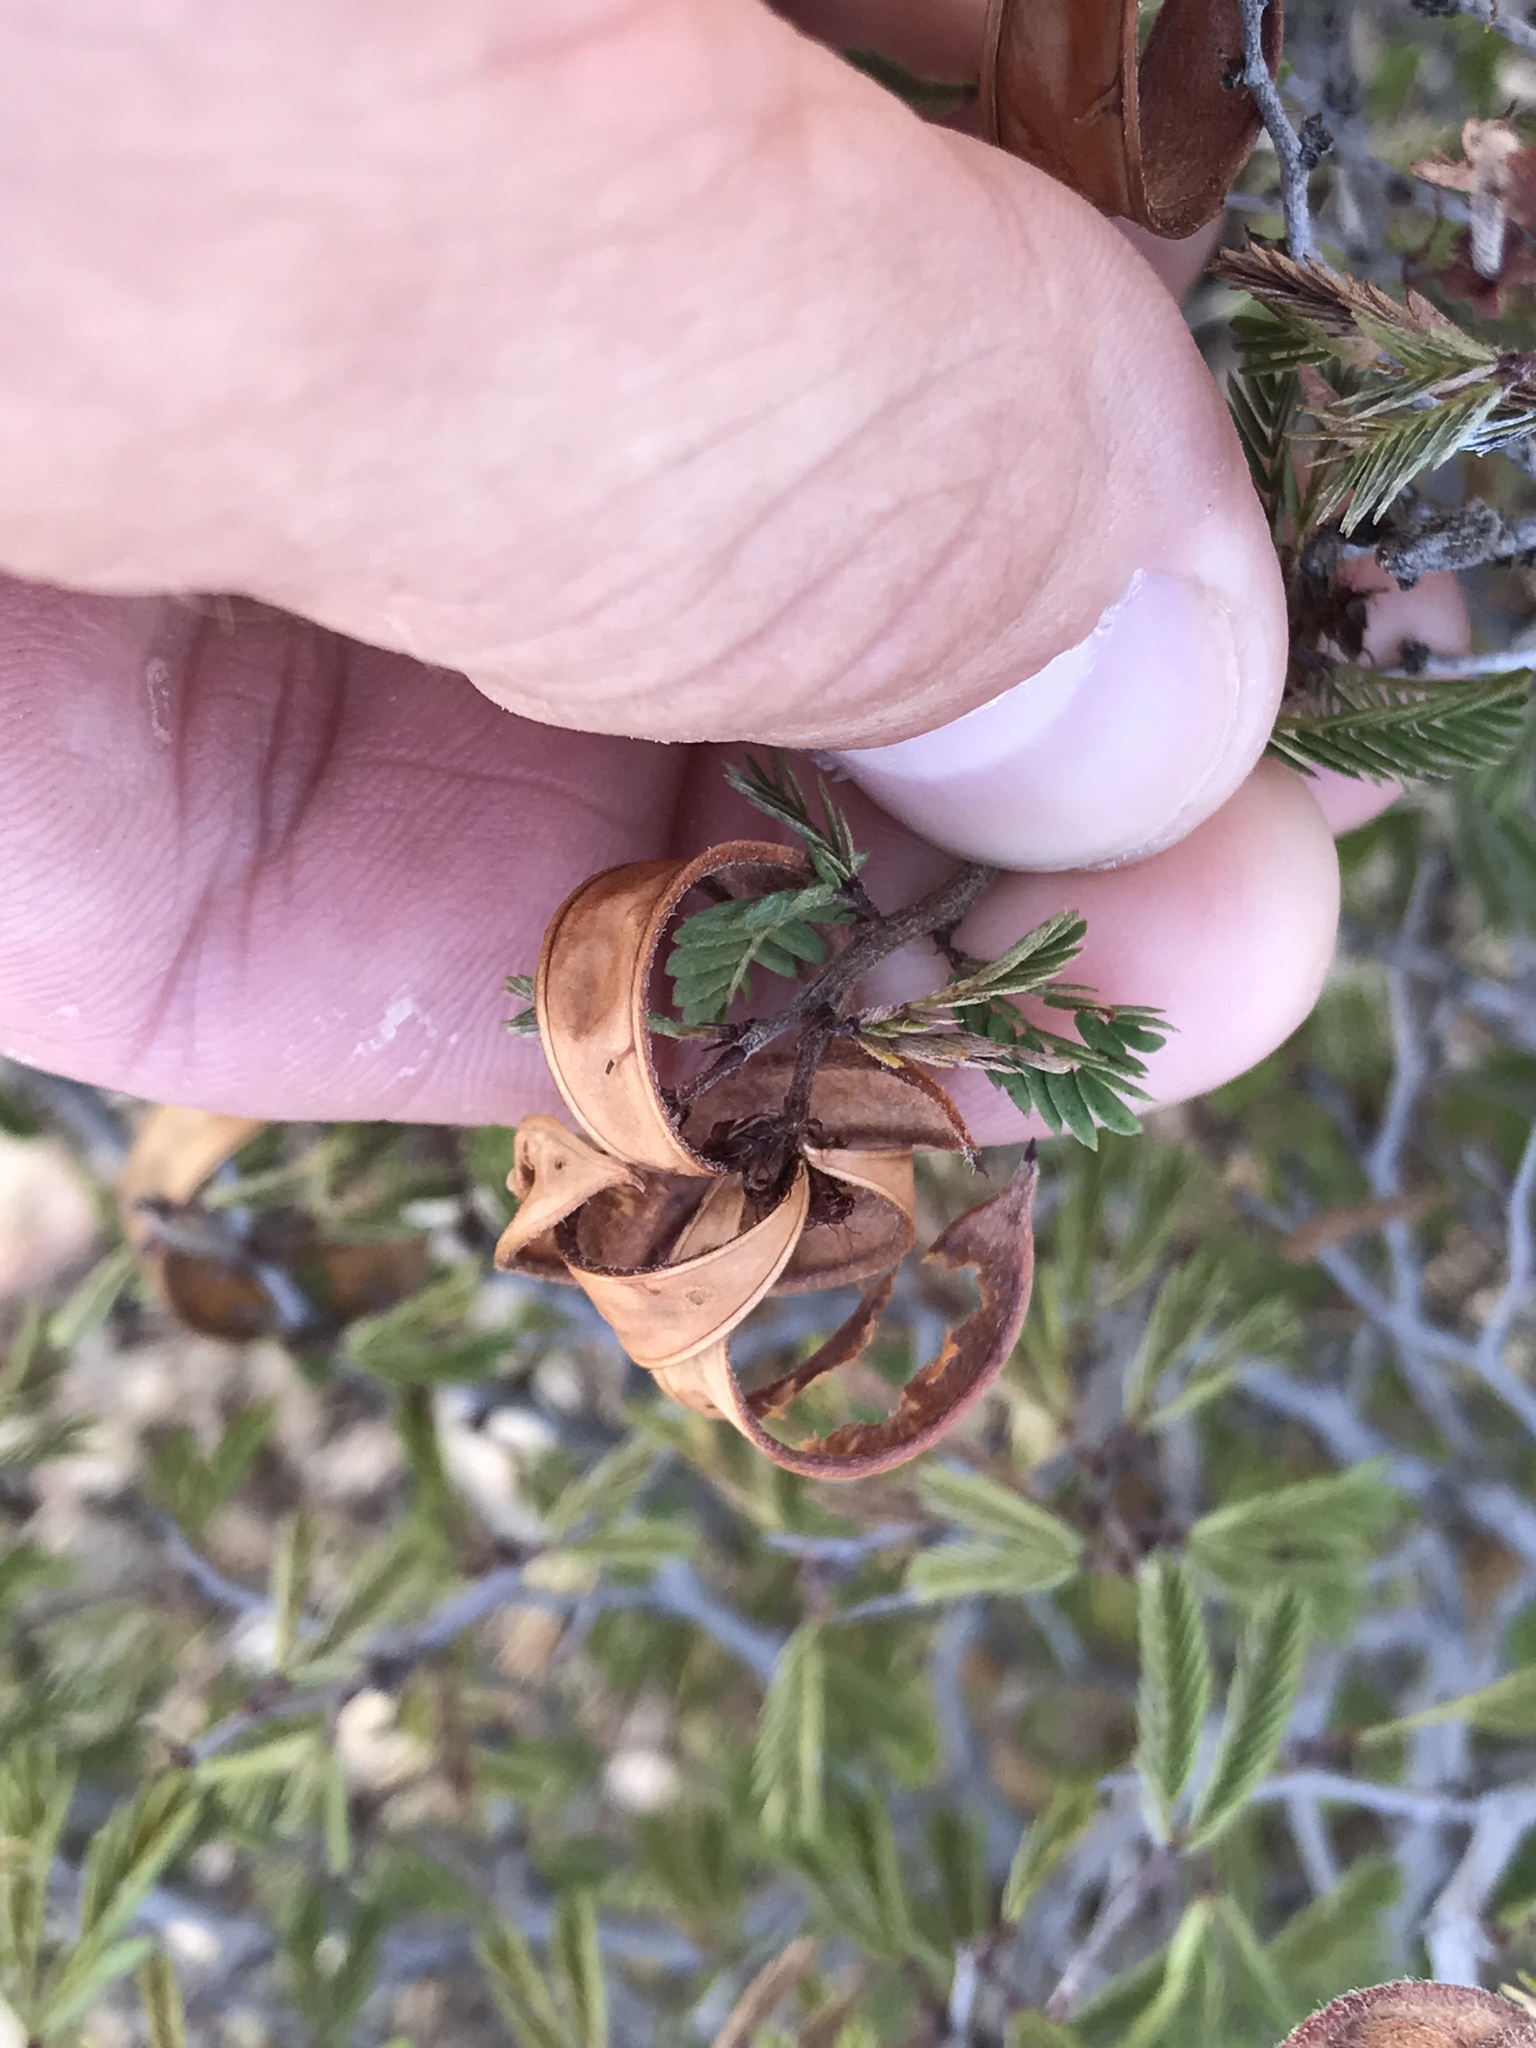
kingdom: Plantae
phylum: Tracheophyta
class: Magnoliopsida
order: Fabales
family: Fabaceae
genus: Calliandra
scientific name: Calliandra conferta
